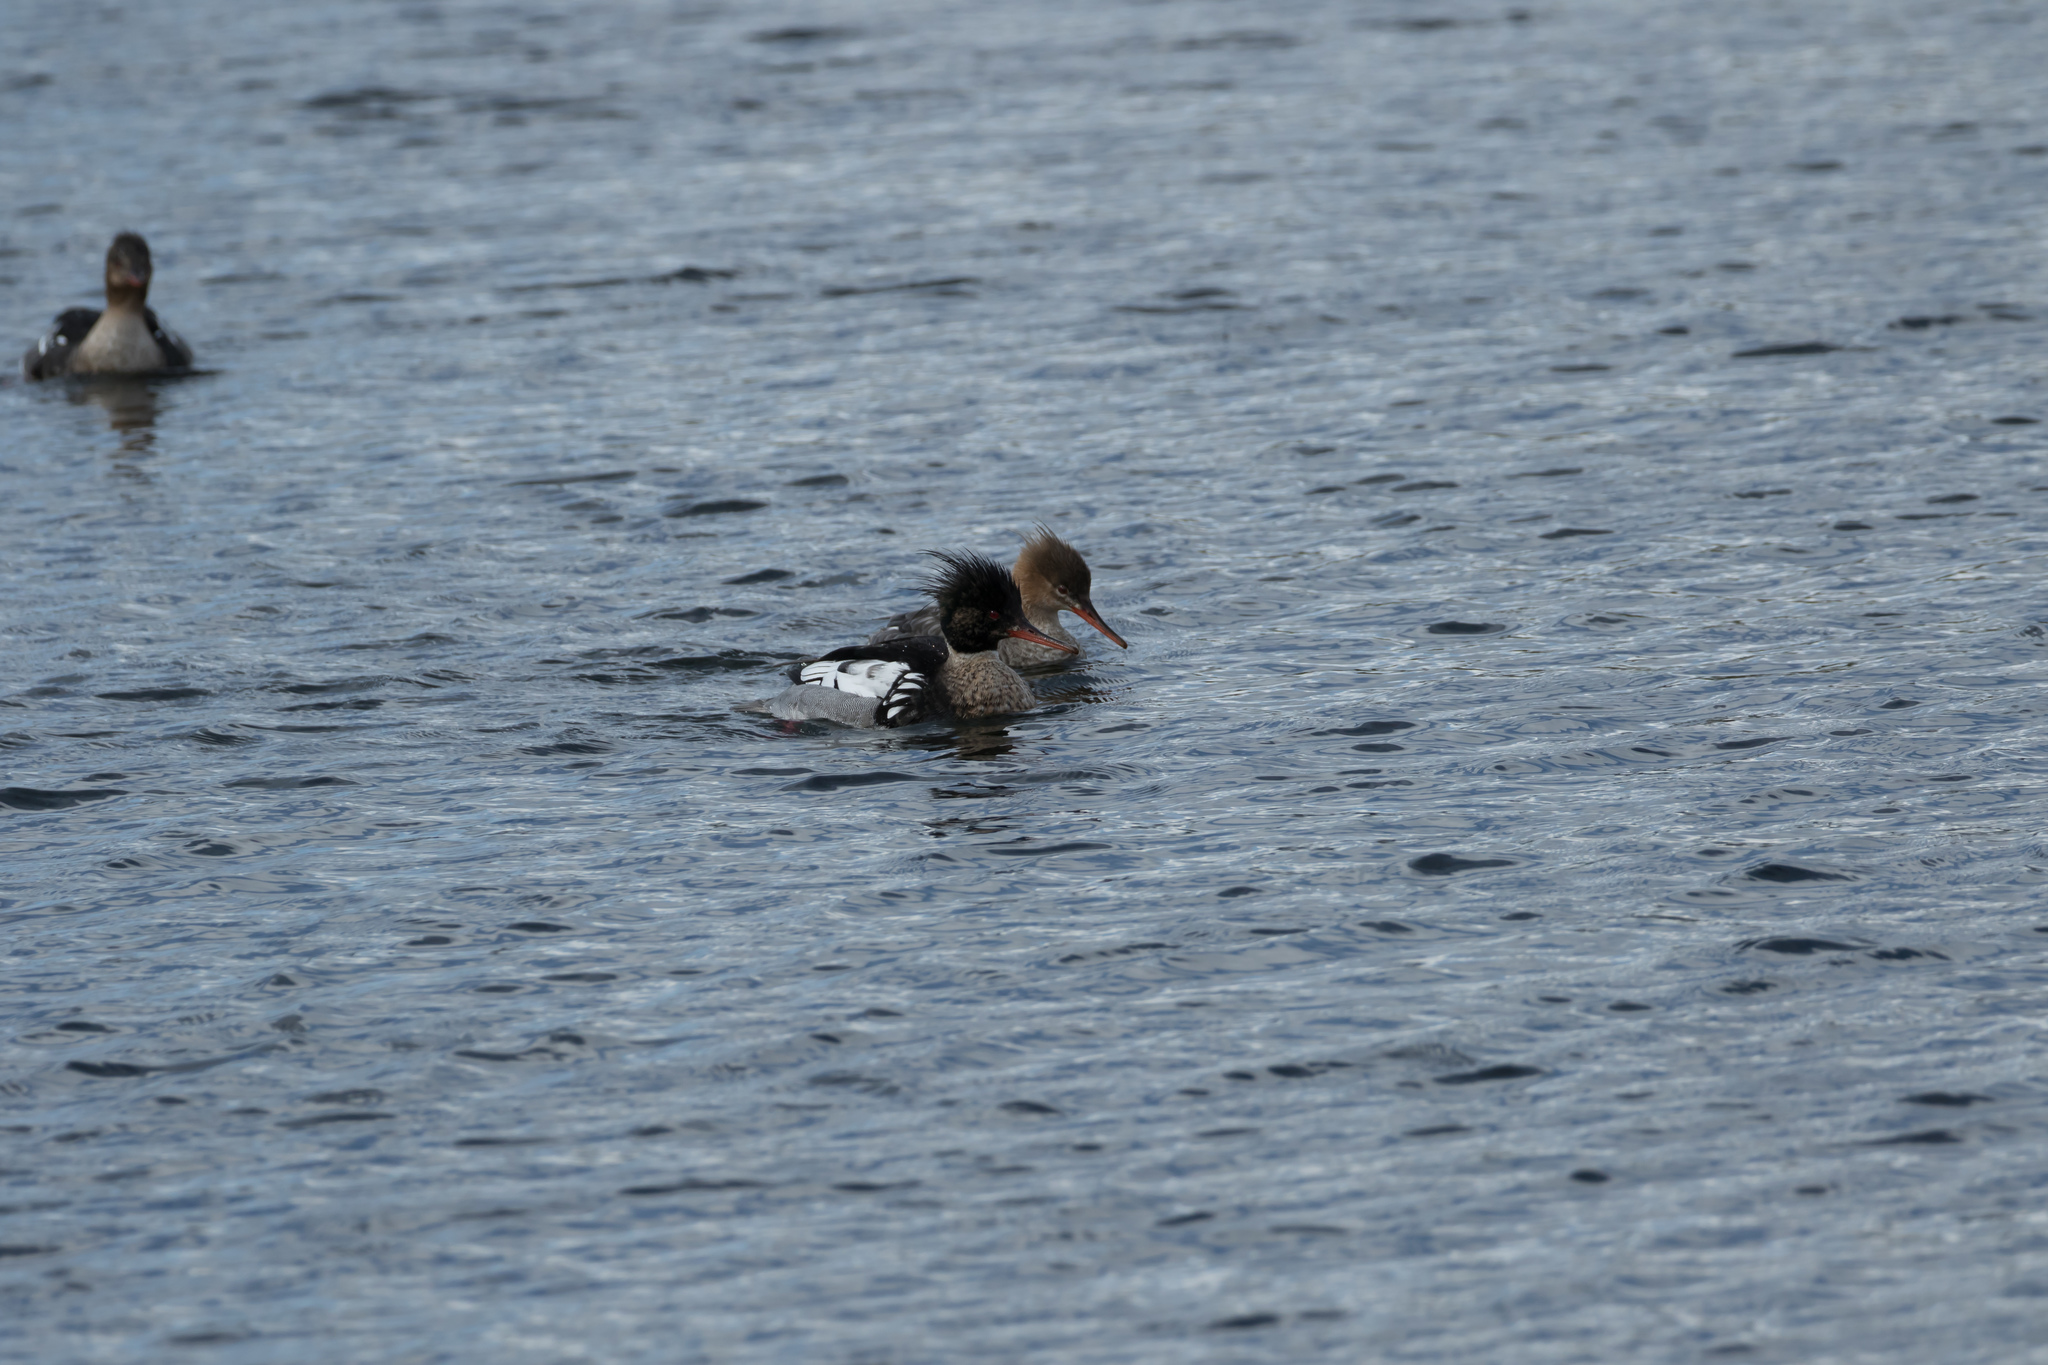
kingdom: Animalia
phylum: Chordata
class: Aves
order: Anseriformes
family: Anatidae
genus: Mergus
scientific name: Mergus serrator
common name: Red-breasted merganser
